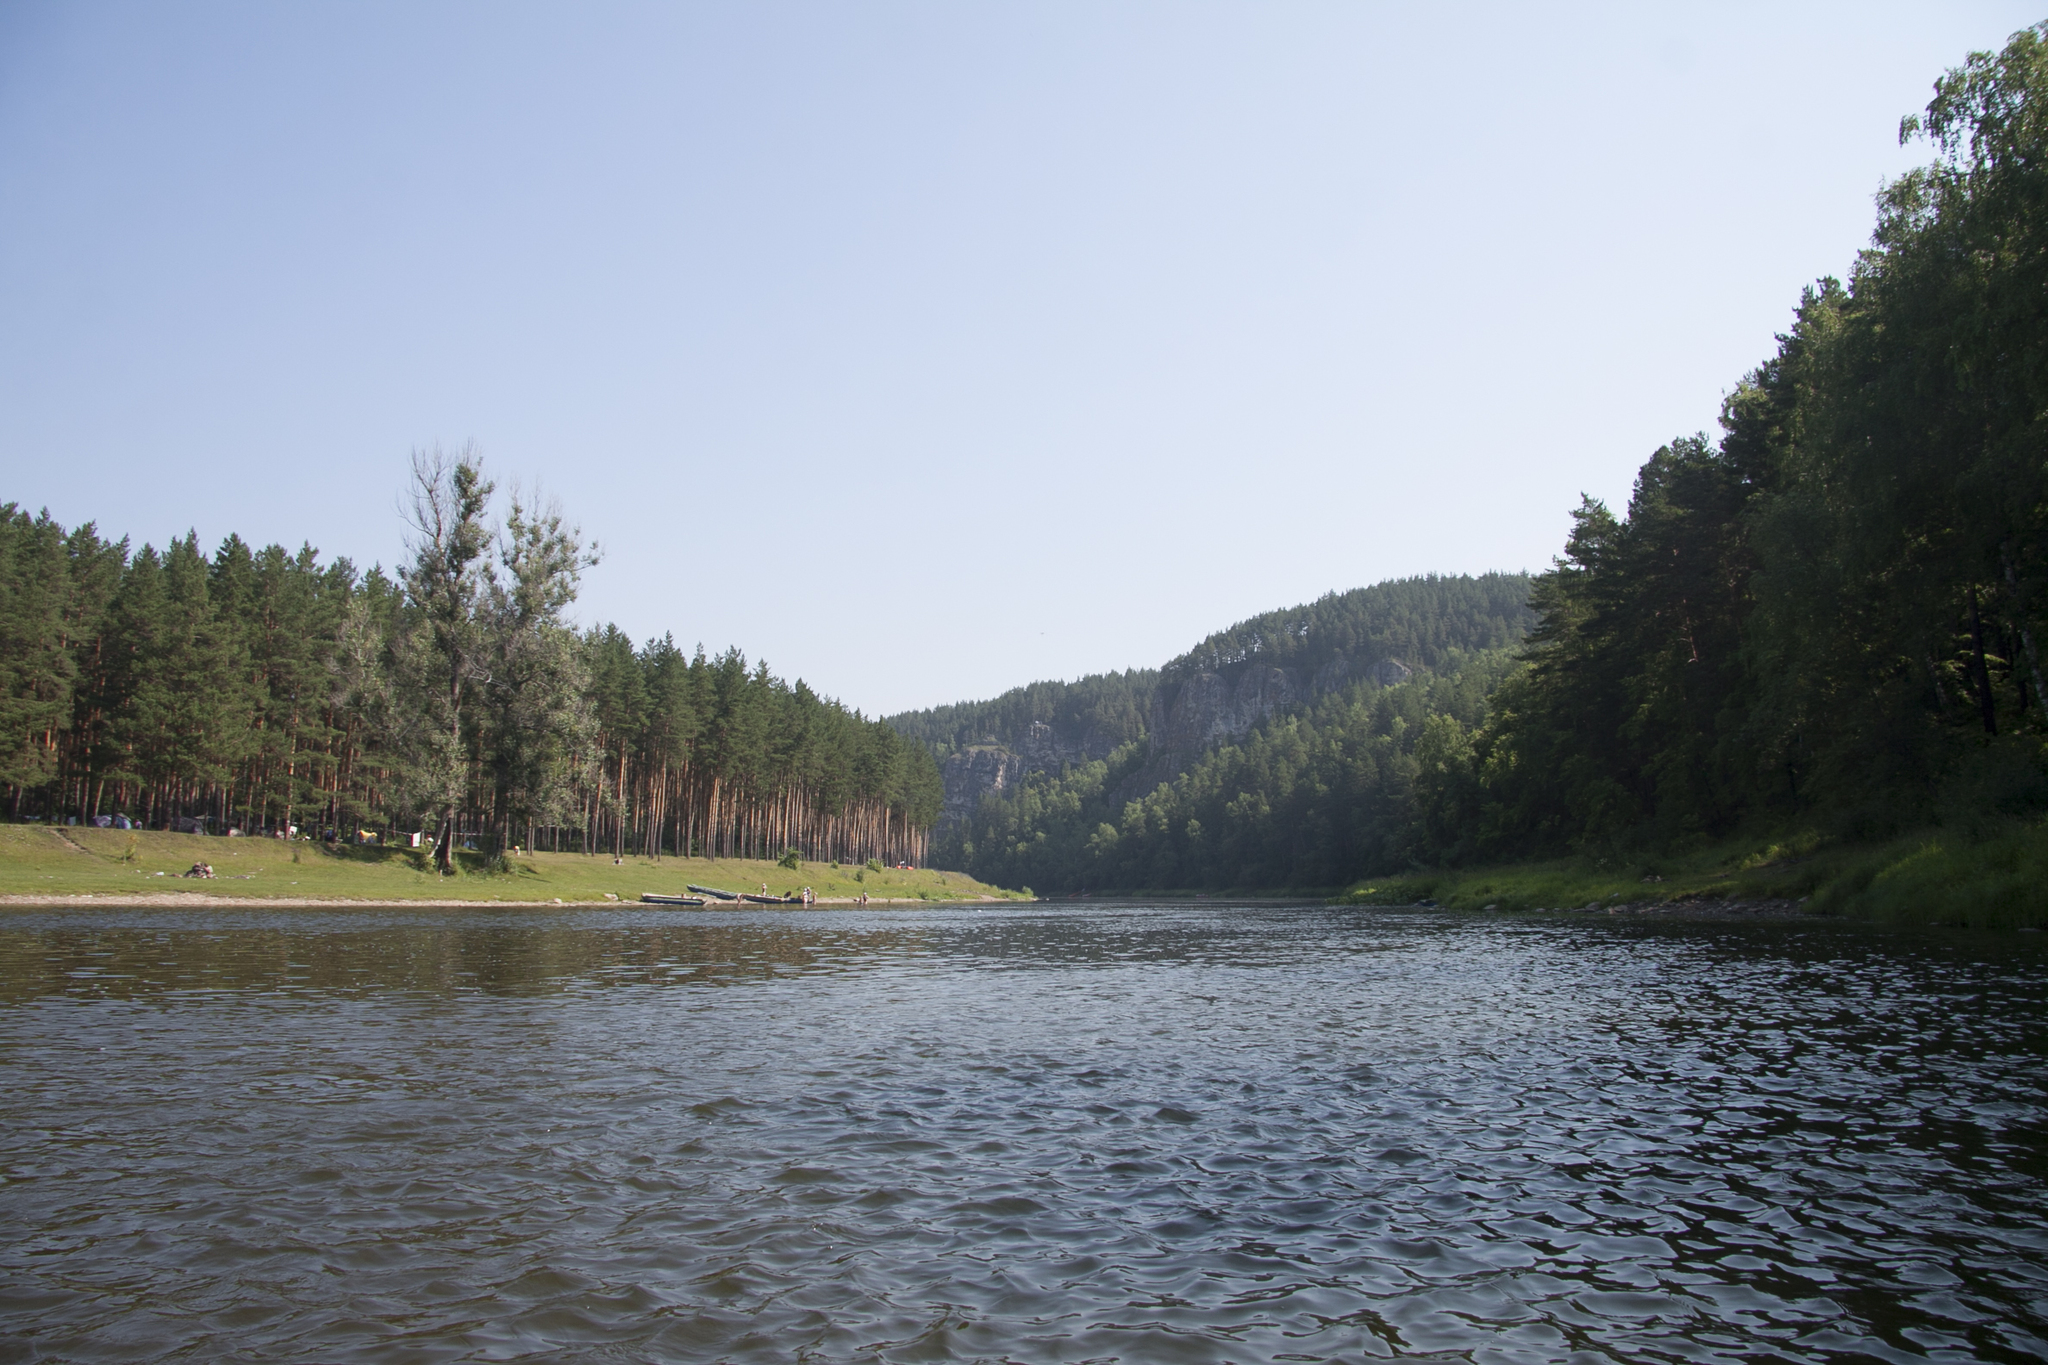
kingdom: Plantae
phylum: Tracheophyta
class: Pinopsida
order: Pinales
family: Pinaceae
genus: Pinus
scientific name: Pinus sylvestris
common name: Scots pine
